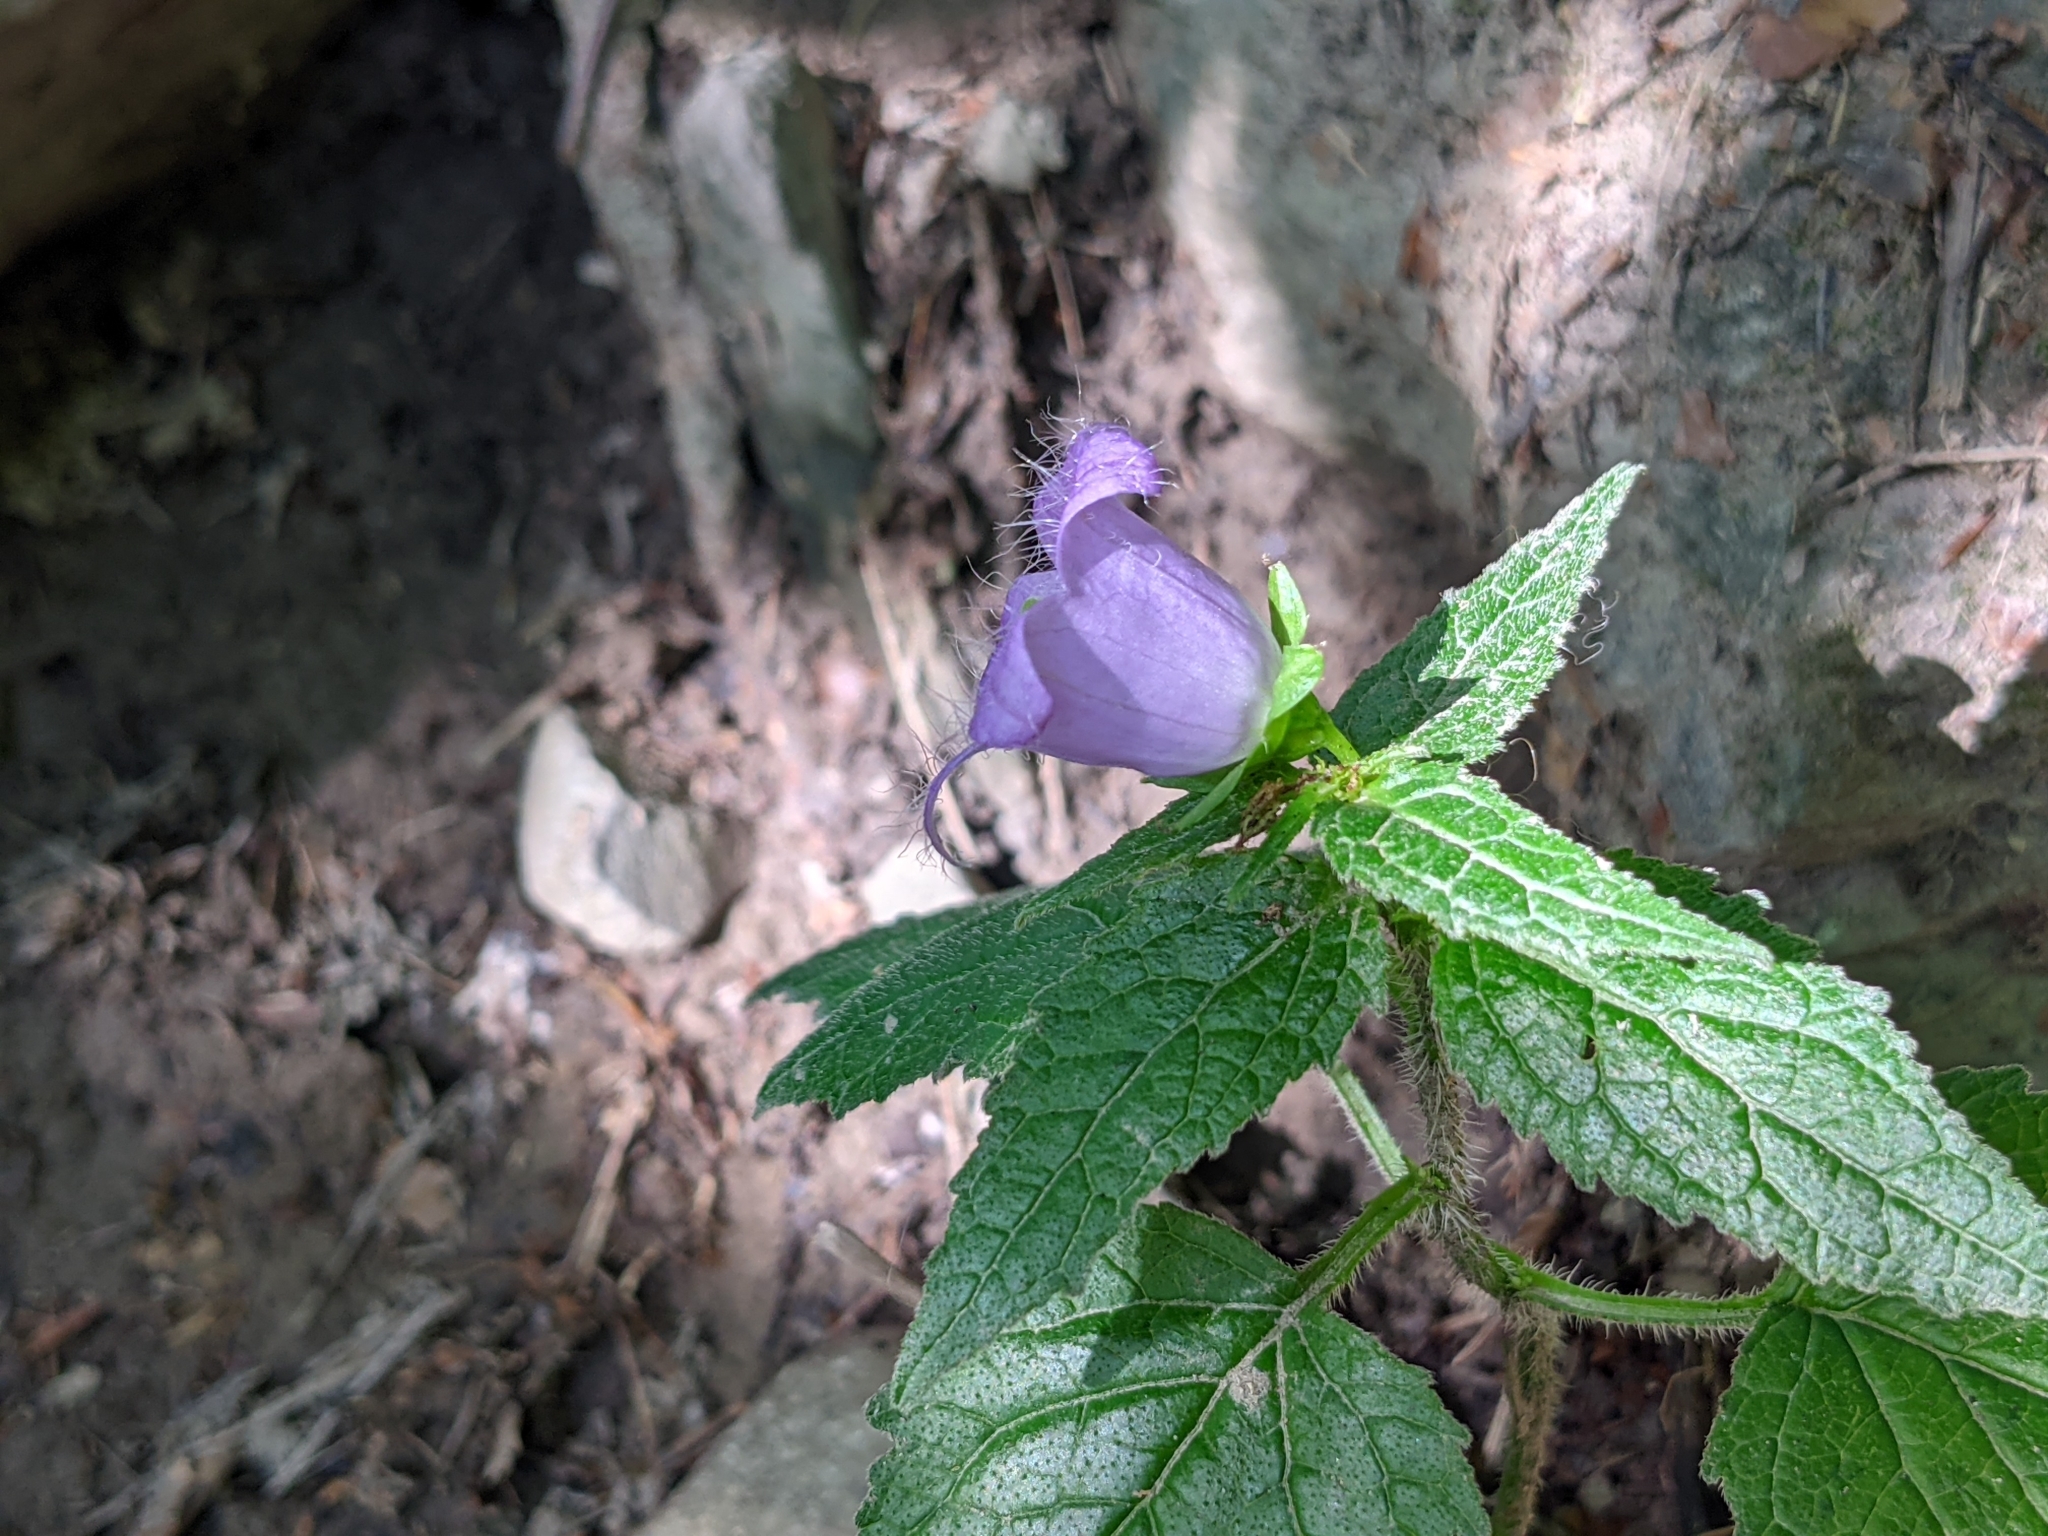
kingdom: Plantae
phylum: Tracheophyta
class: Magnoliopsida
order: Asterales
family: Campanulaceae
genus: Campanula
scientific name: Campanula trachelium
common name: Nettle-leaved bellflower
